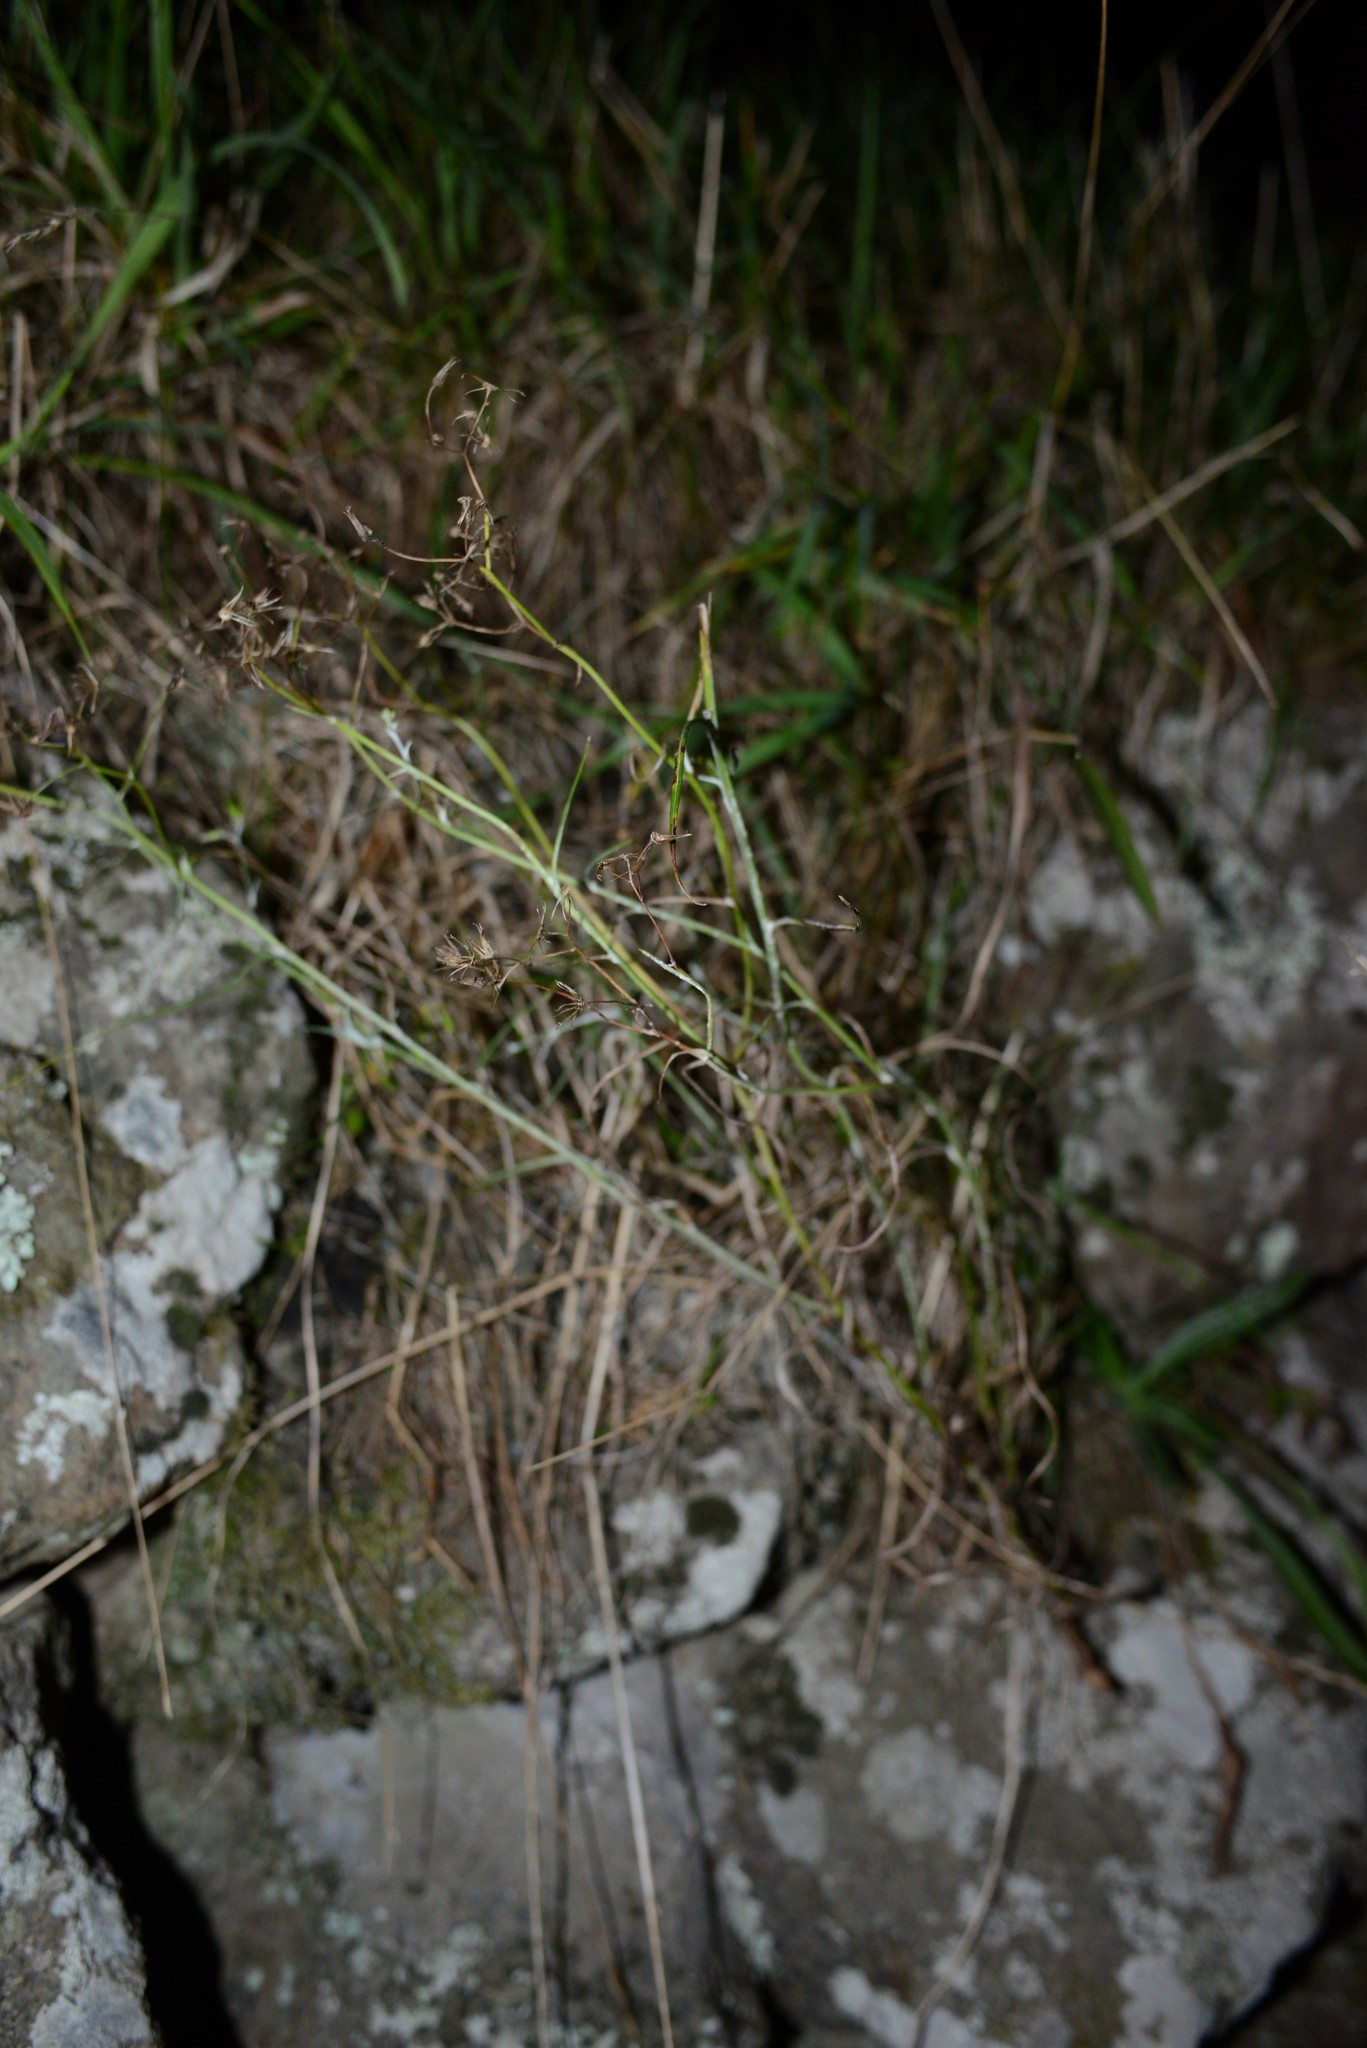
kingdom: Plantae
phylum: Tracheophyta
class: Magnoliopsida
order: Asterales
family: Asteraceae
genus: Senecio
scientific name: Senecio quadridentatus
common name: Cotton fireweed
